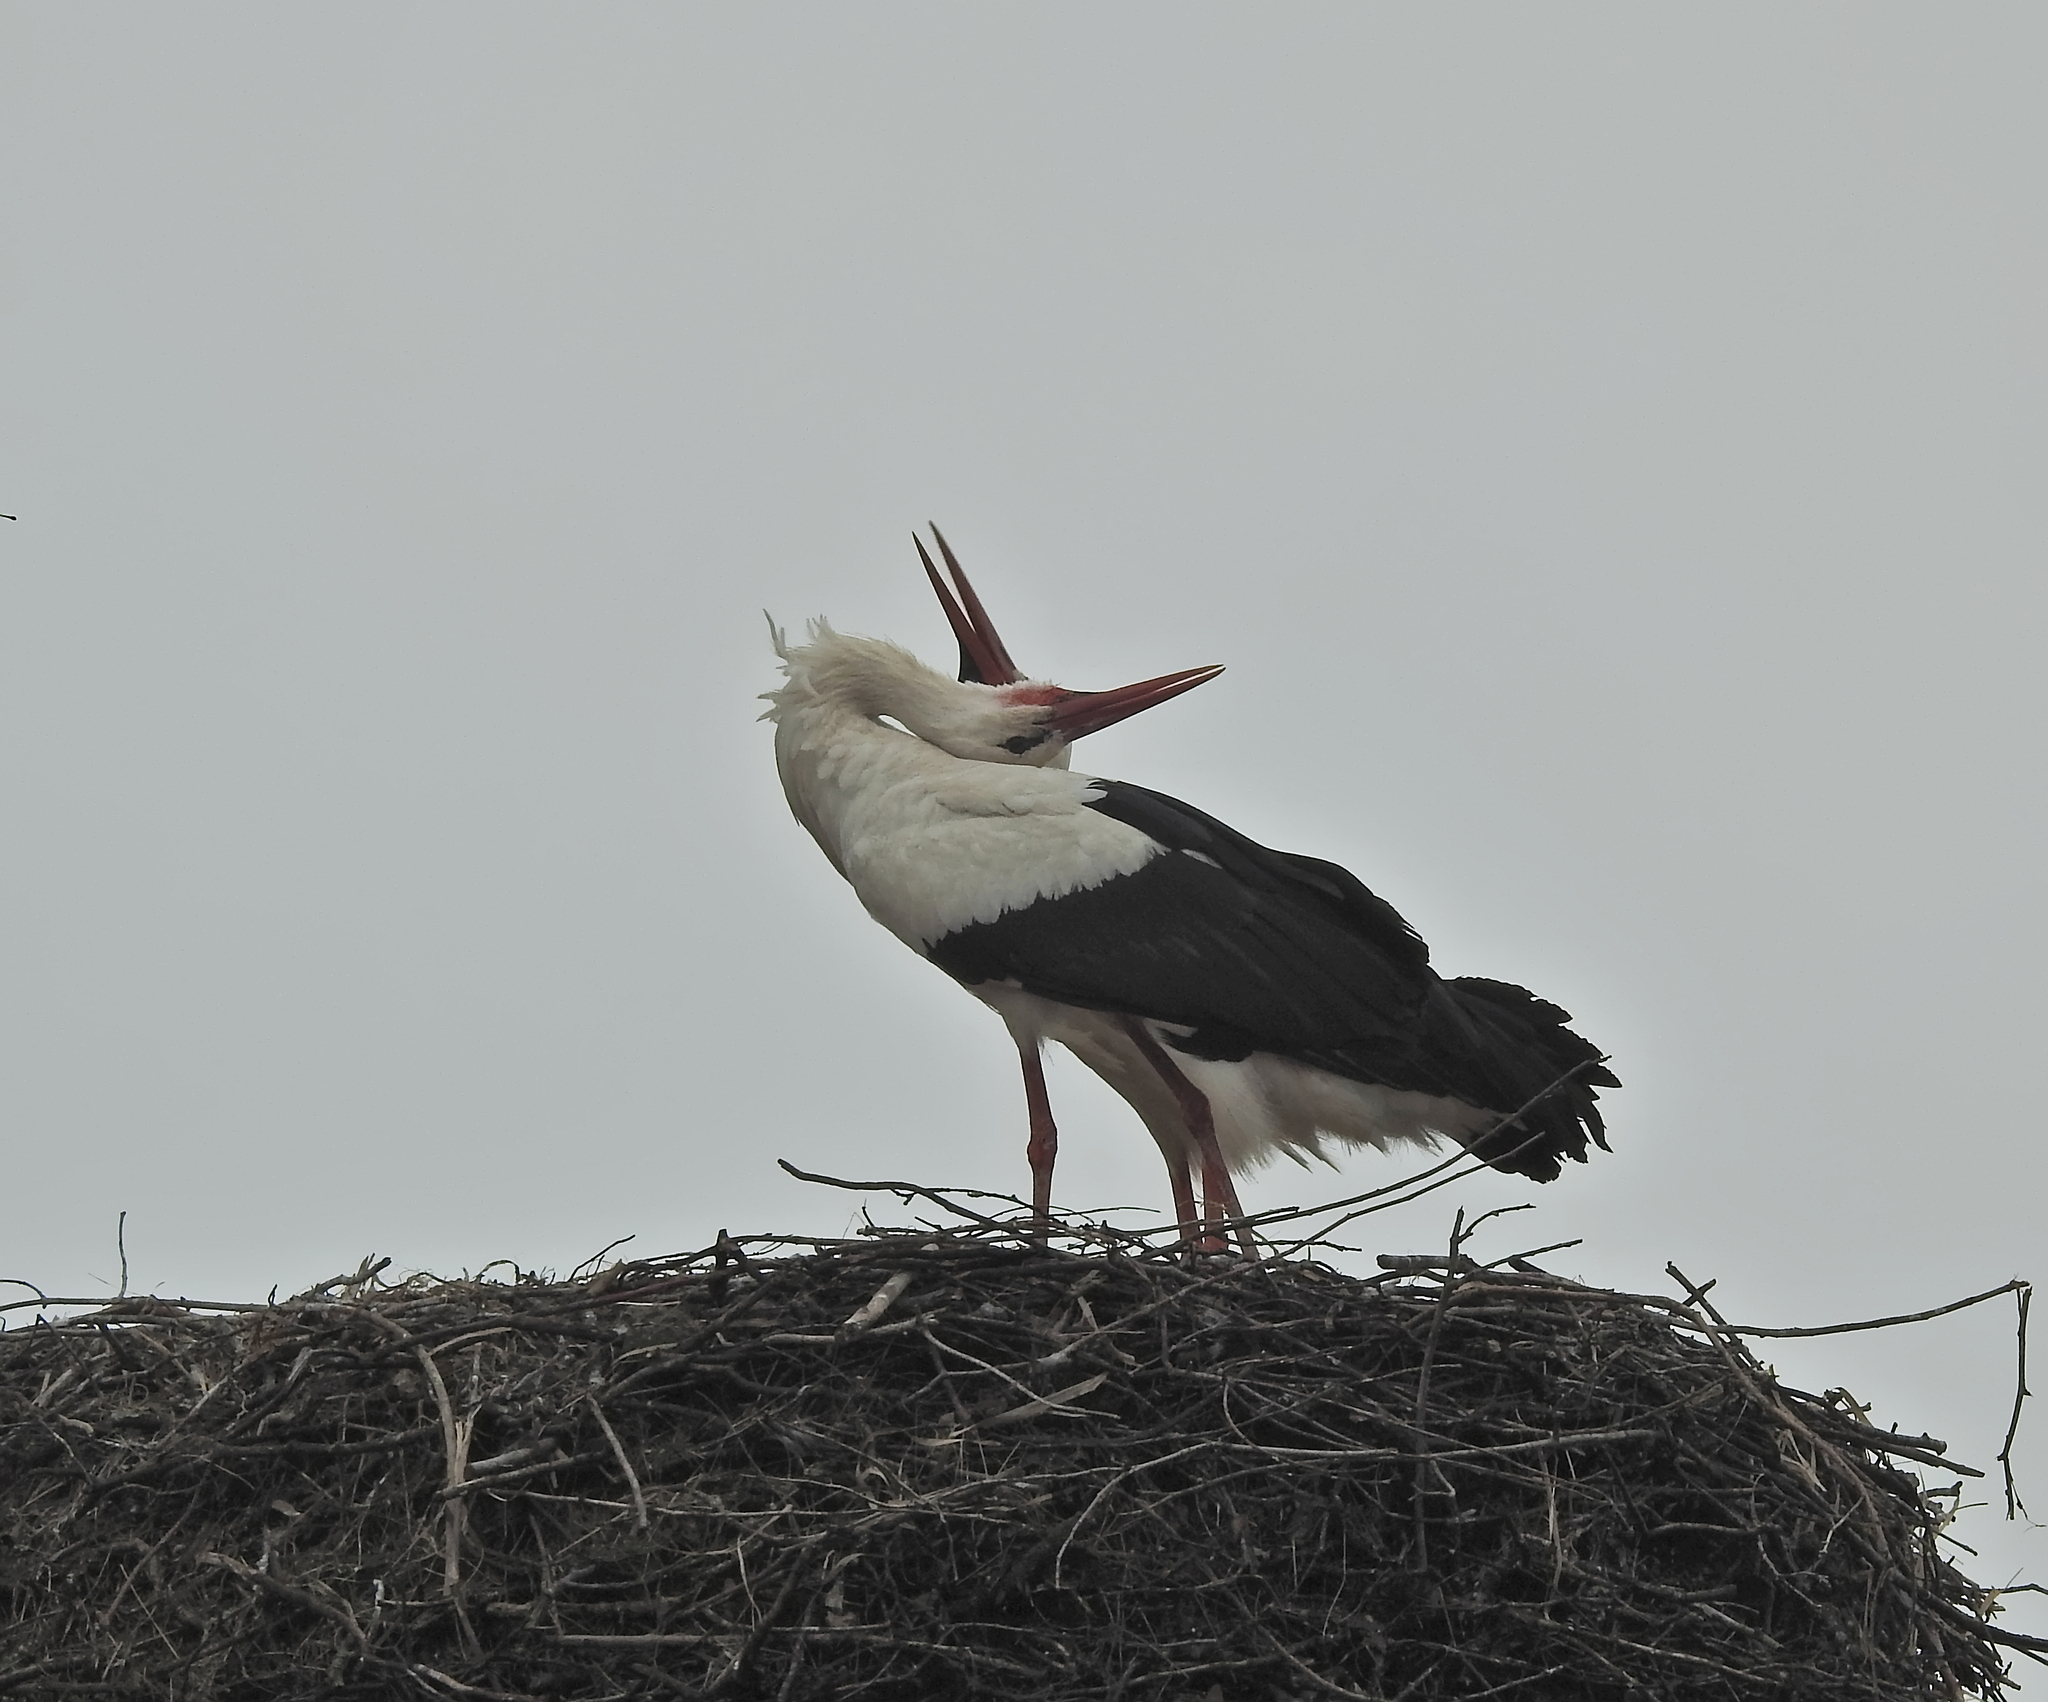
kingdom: Animalia
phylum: Chordata
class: Aves
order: Ciconiiformes
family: Ciconiidae
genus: Ciconia
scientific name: Ciconia ciconia
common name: White stork
